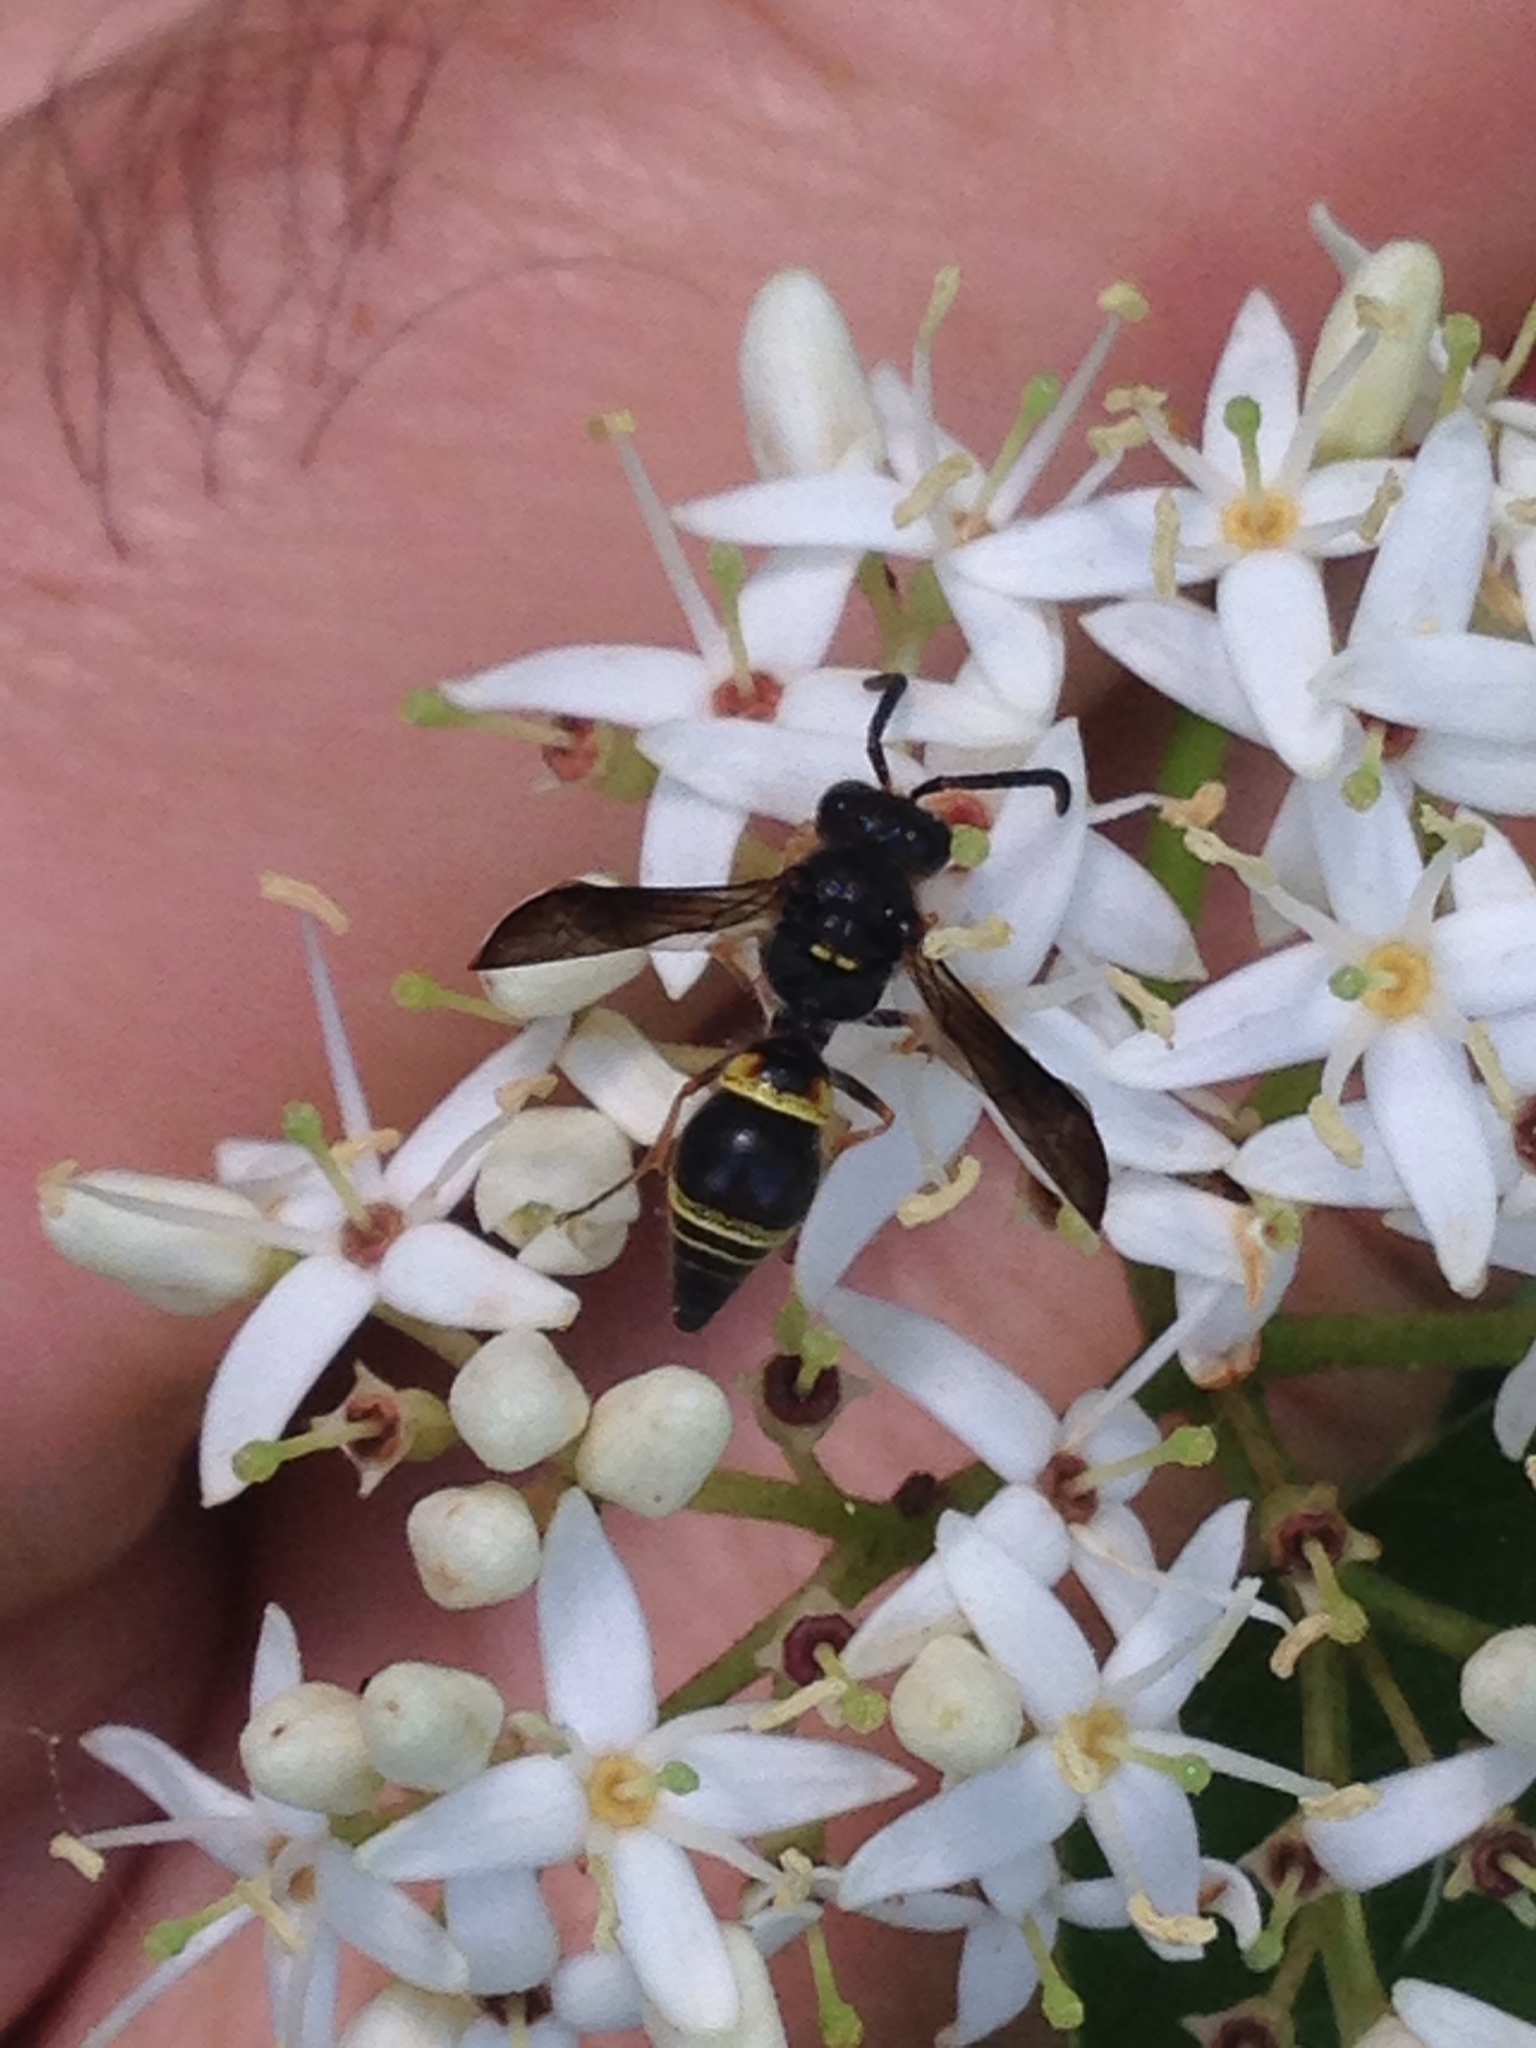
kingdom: Animalia
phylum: Arthropoda
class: Insecta
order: Hymenoptera
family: Vespidae
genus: Ancistrocerus
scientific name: Ancistrocerus unifasciatus
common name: One-banded mason wasp
